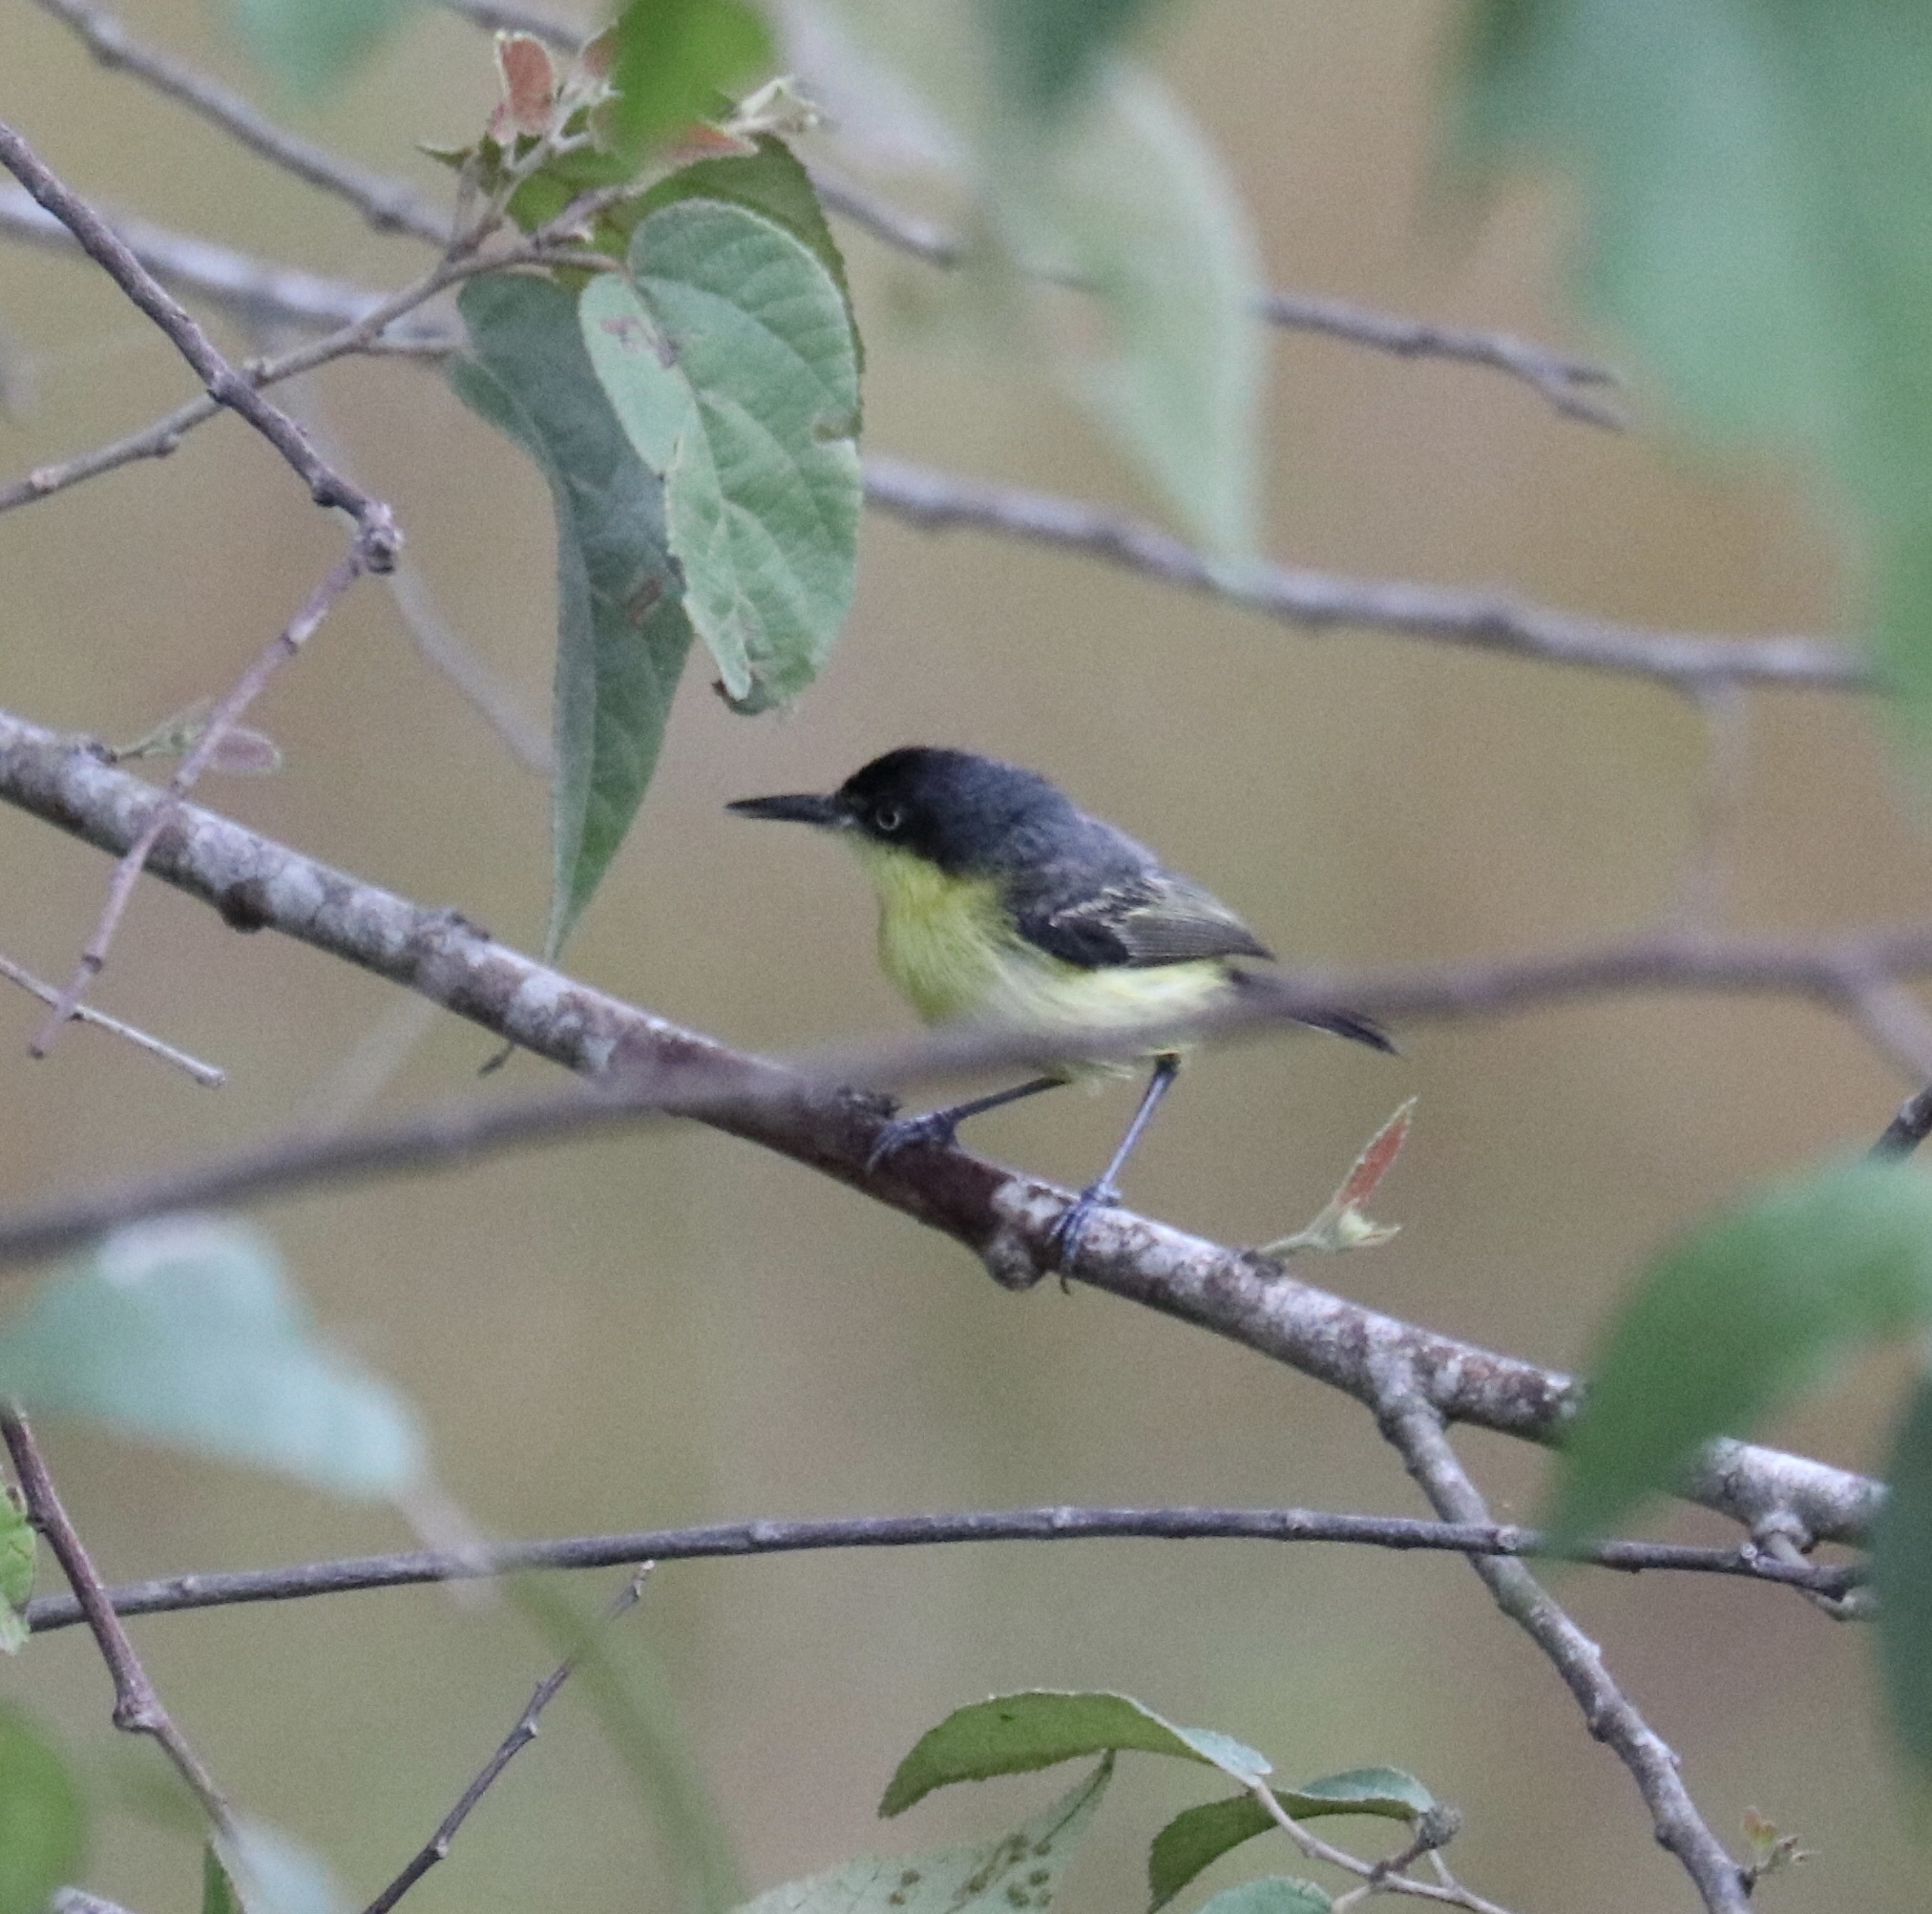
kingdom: Animalia
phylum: Chordata
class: Aves
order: Passeriformes
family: Tyrannidae
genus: Todirostrum
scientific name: Todirostrum cinereum
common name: Common tody-flycatcher
